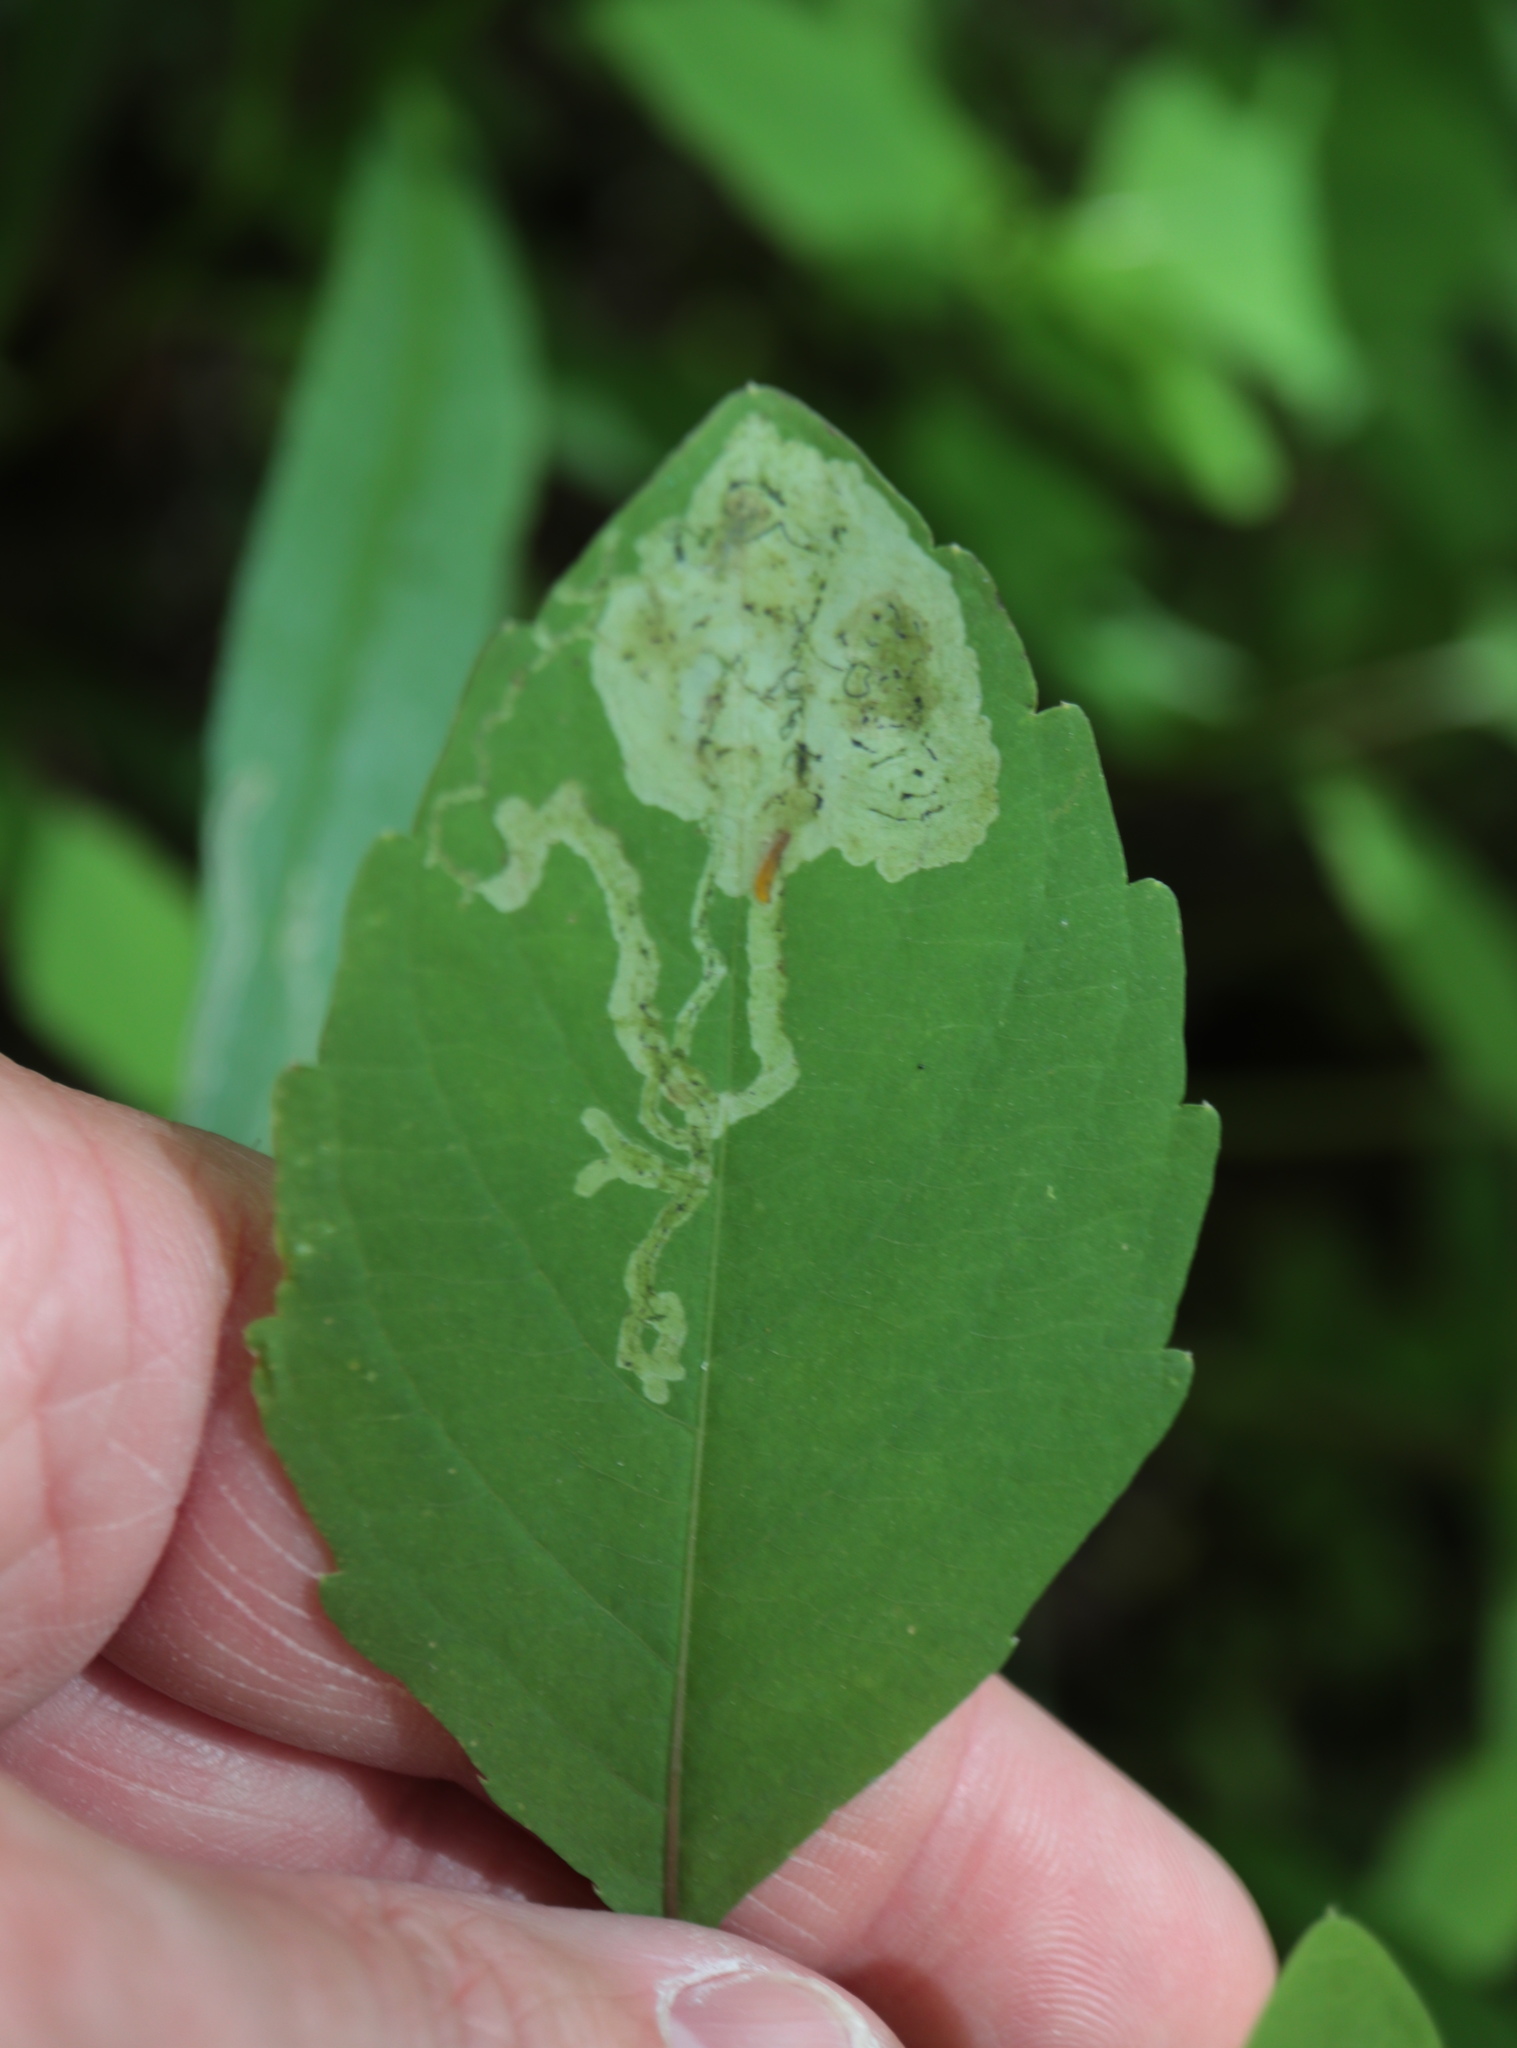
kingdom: Animalia
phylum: Arthropoda
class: Insecta
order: Diptera
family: Agromyzidae
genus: Phytoliriomyza
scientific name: Phytoliriomyza melampyga
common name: Jewelweed leaf-miner fly
